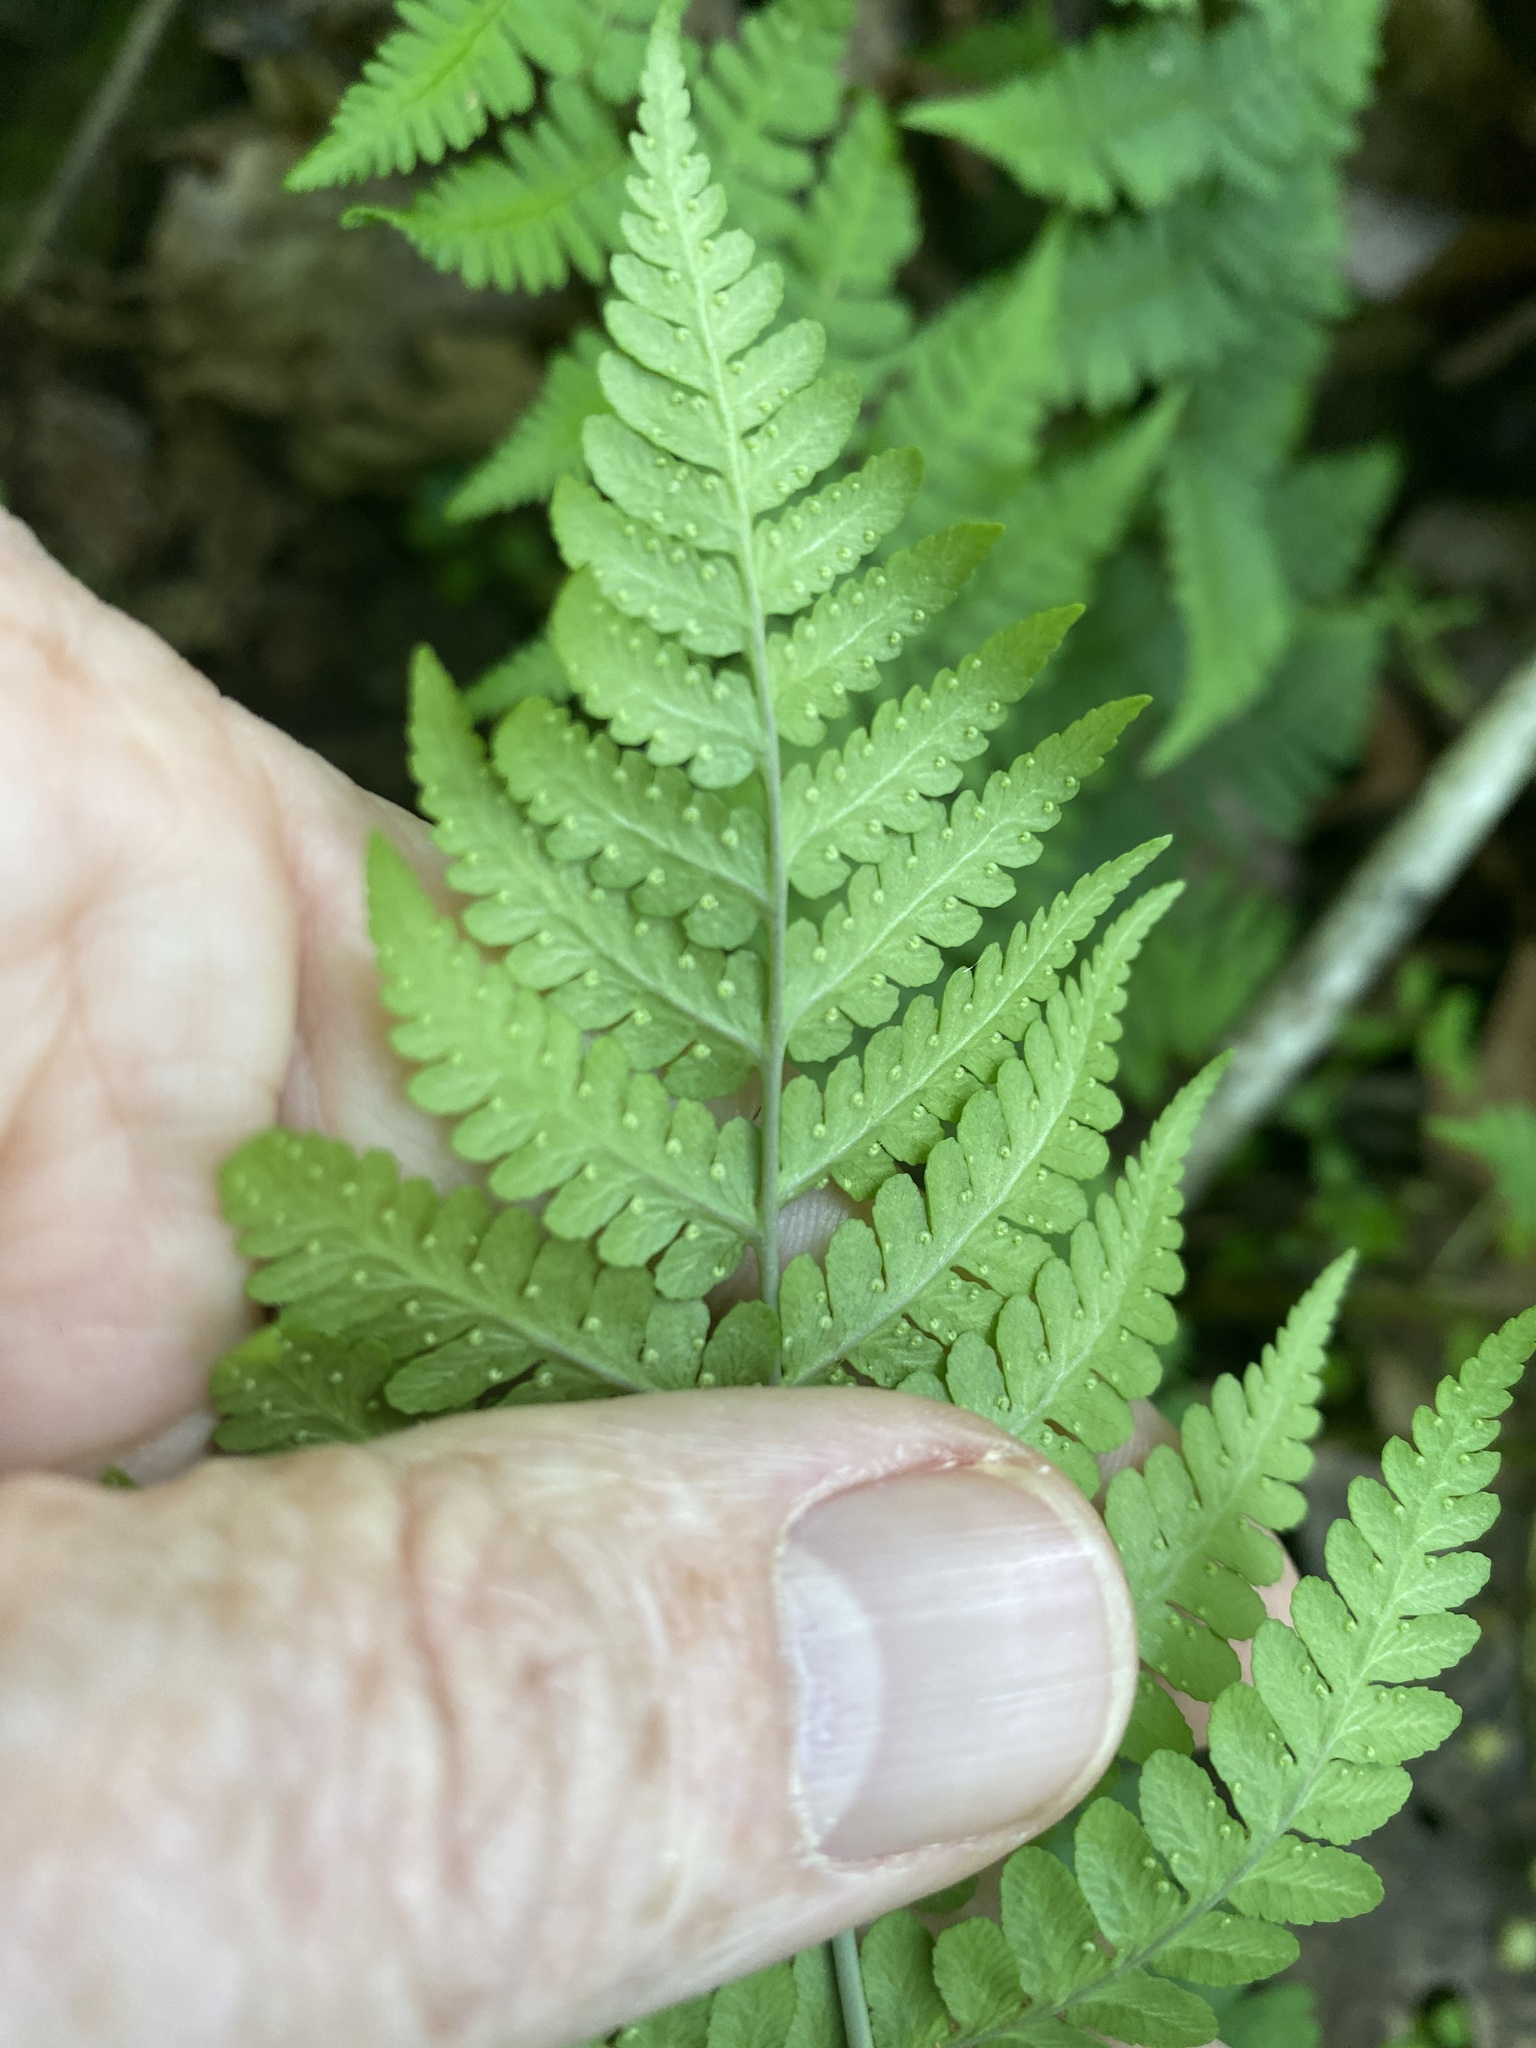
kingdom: Plantae
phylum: Tracheophyta
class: Polypodiopsida
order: Polypodiales
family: Dryopteridaceae
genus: Dryopteris
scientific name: Dryopteris marginalis
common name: Marginal wood fern
